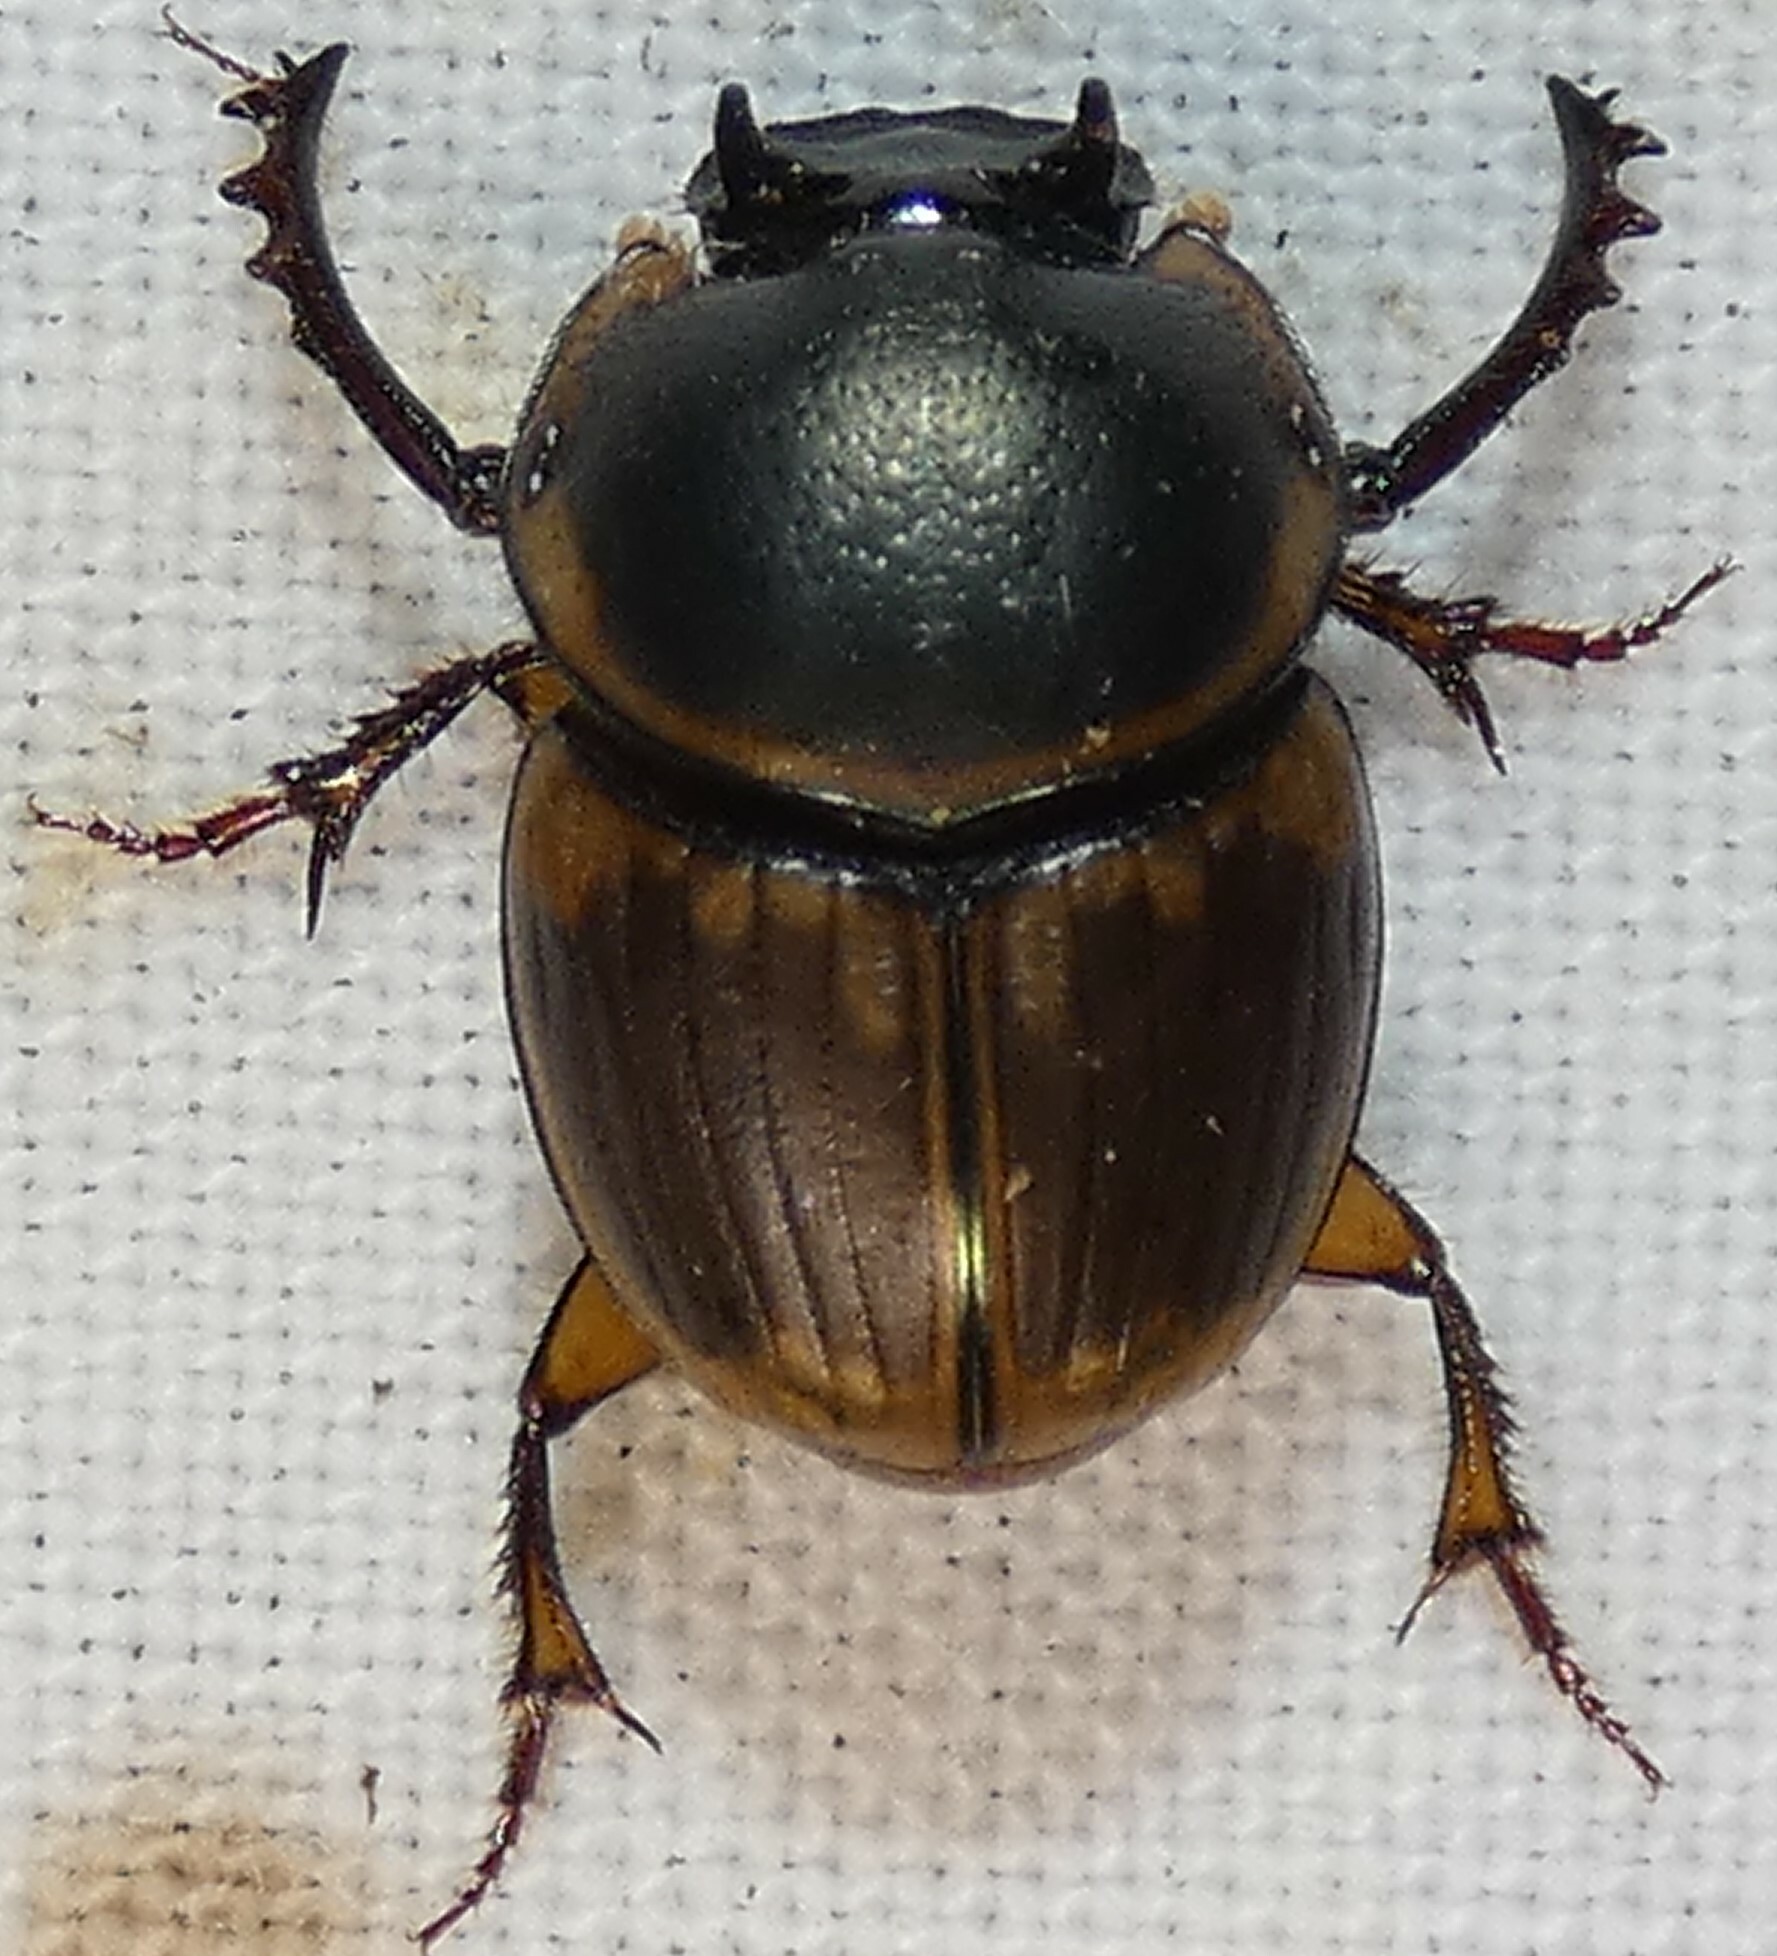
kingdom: Animalia
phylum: Arthropoda
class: Insecta
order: Coleoptera
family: Scarabaeidae
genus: Digitonthophagus
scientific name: Digitonthophagus gazella
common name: Brown dung beetle
